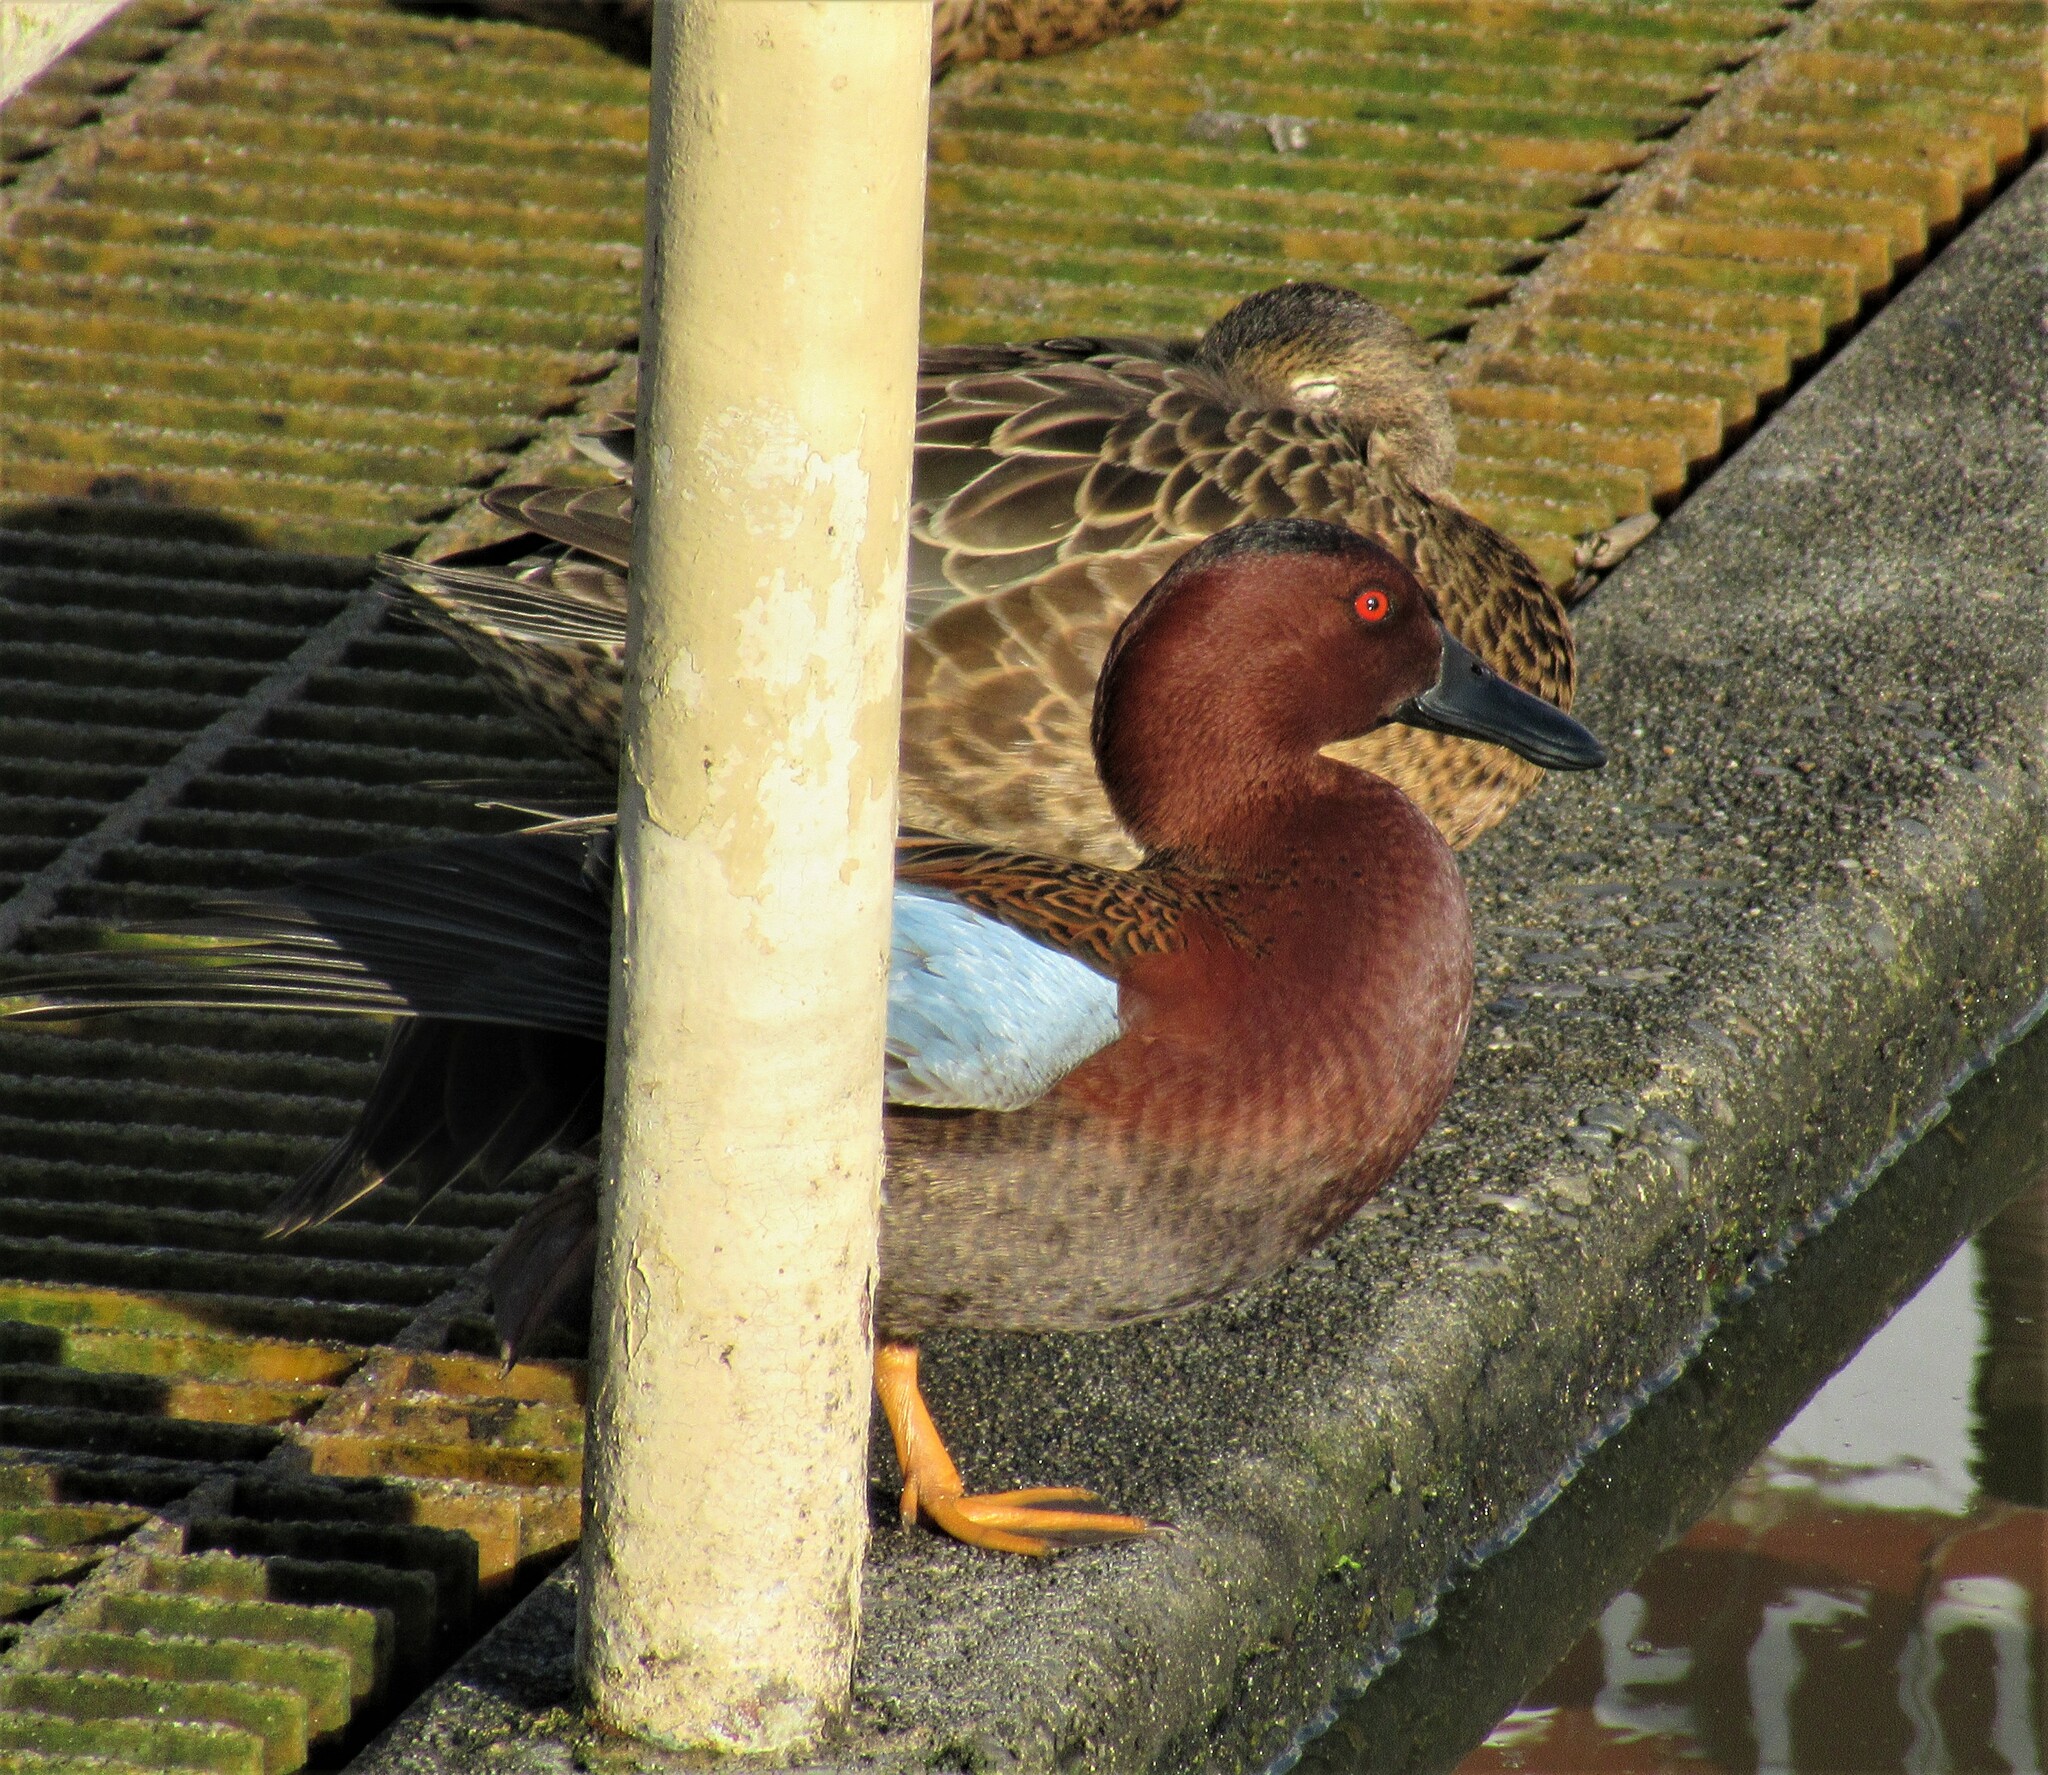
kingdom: Animalia
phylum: Chordata
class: Aves
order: Anseriformes
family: Anatidae
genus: Spatula
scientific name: Spatula cyanoptera
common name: Cinnamon teal
